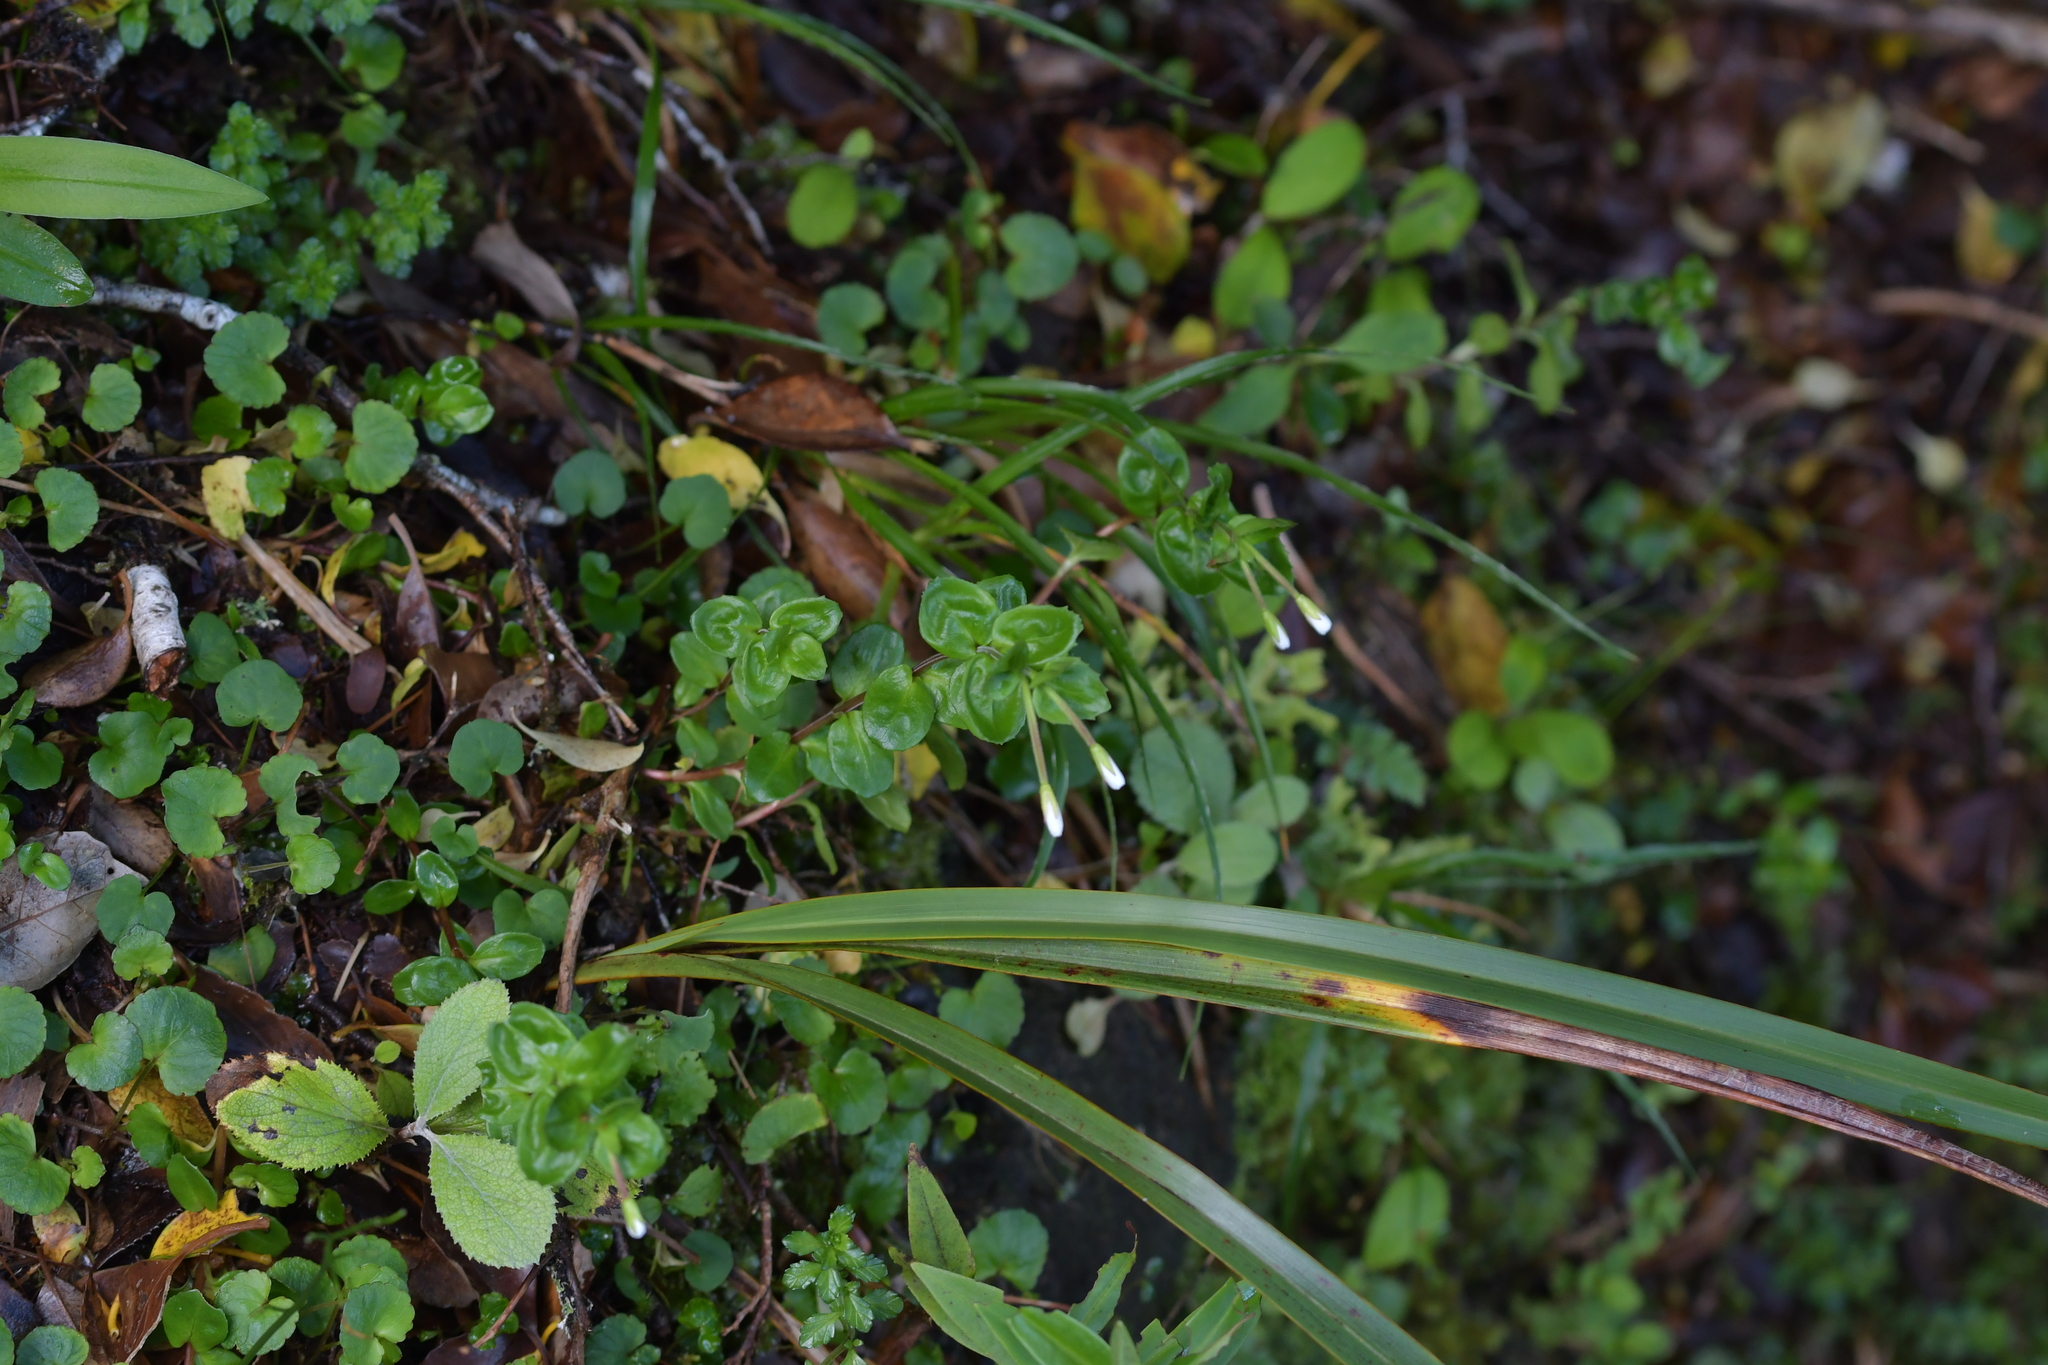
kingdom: Plantae
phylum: Tracheophyta
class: Magnoliopsida
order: Myrtales
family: Onagraceae
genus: Epilobium
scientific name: Epilobium chlorifolium
